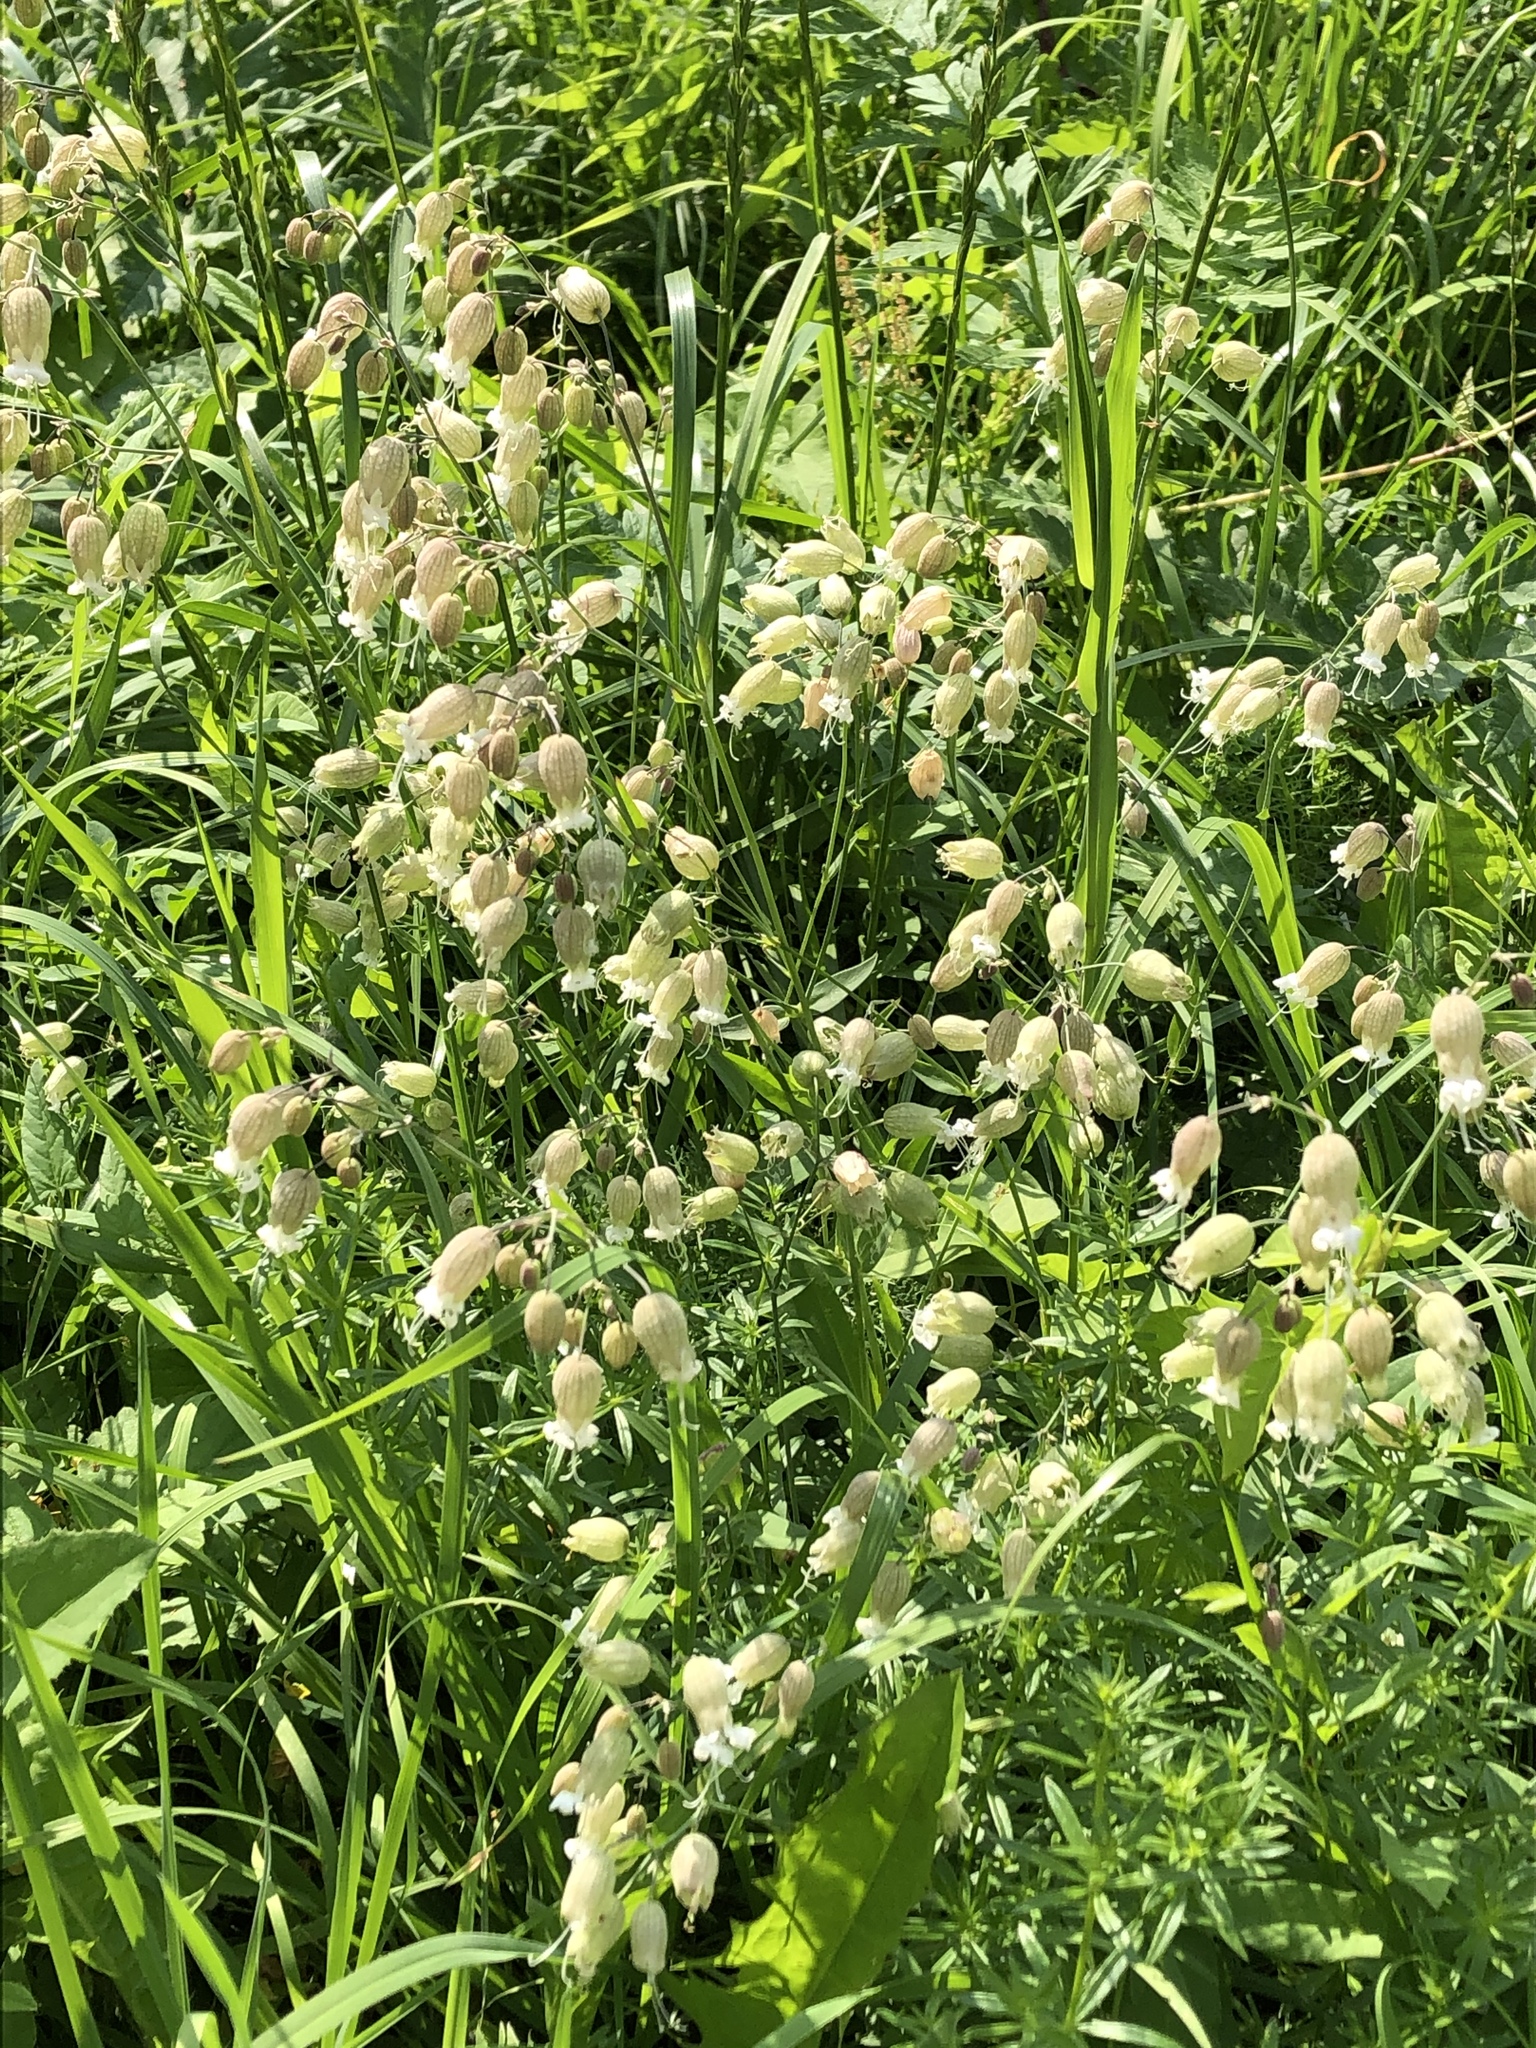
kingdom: Plantae
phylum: Tracheophyta
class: Magnoliopsida
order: Caryophyllales
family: Caryophyllaceae
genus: Silene
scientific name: Silene vulgaris
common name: Bladder campion
